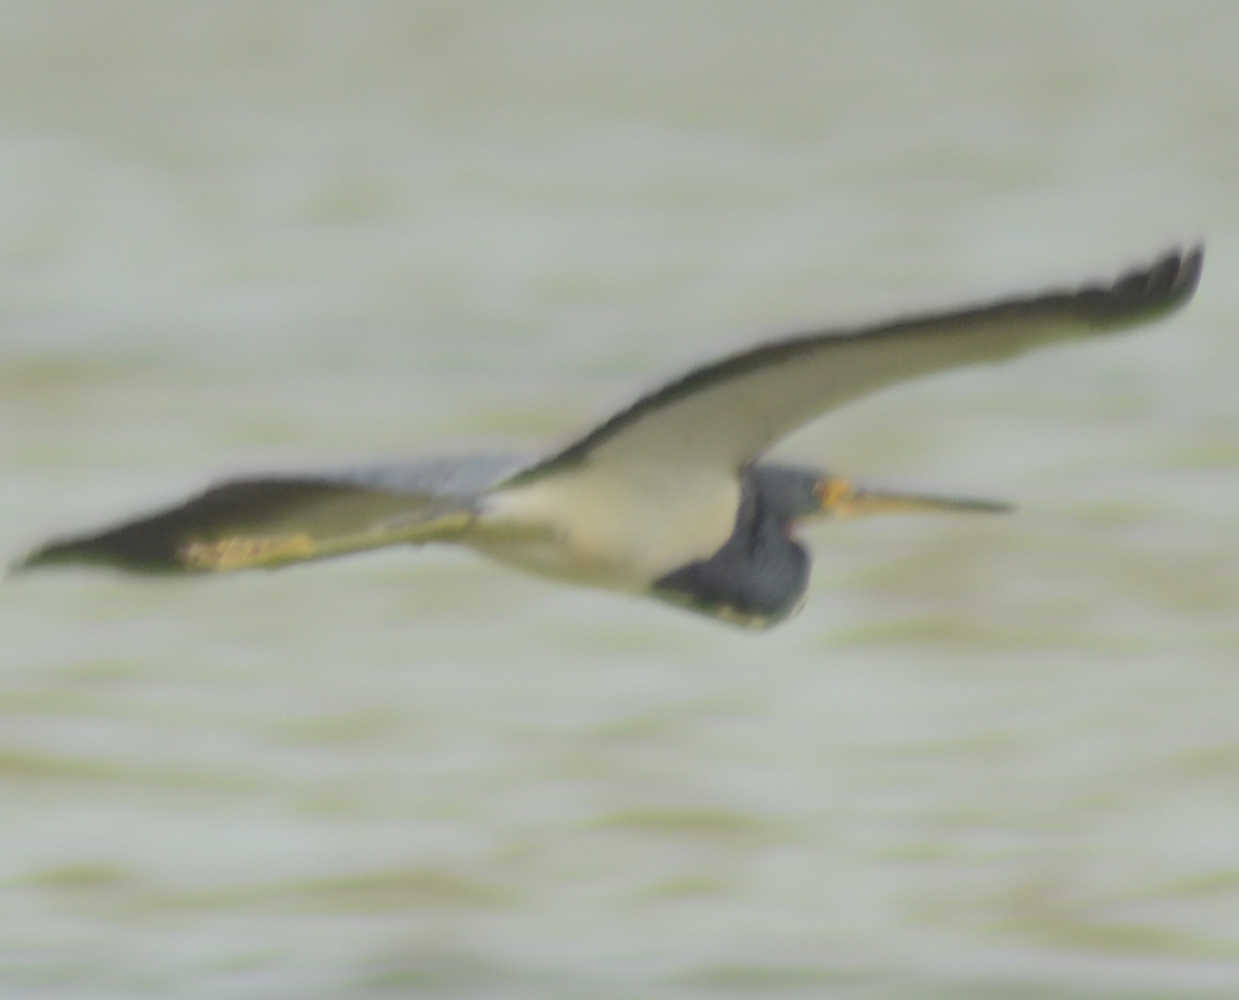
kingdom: Animalia
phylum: Chordata
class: Aves
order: Pelecaniformes
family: Ardeidae
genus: Egretta
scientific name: Egretta tricolor
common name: Tricolored heron
